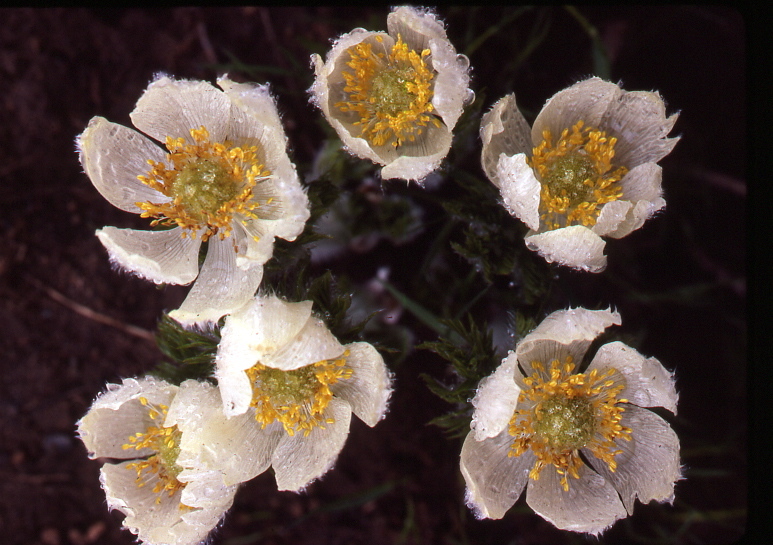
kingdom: Plantae
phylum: Tracheophyta
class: Magnoliopsida
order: Ranunculales
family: Ranunculaceae
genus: Pulsatilla
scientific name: Pulsatilla occidentalis
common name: Mountain pasqueflower
